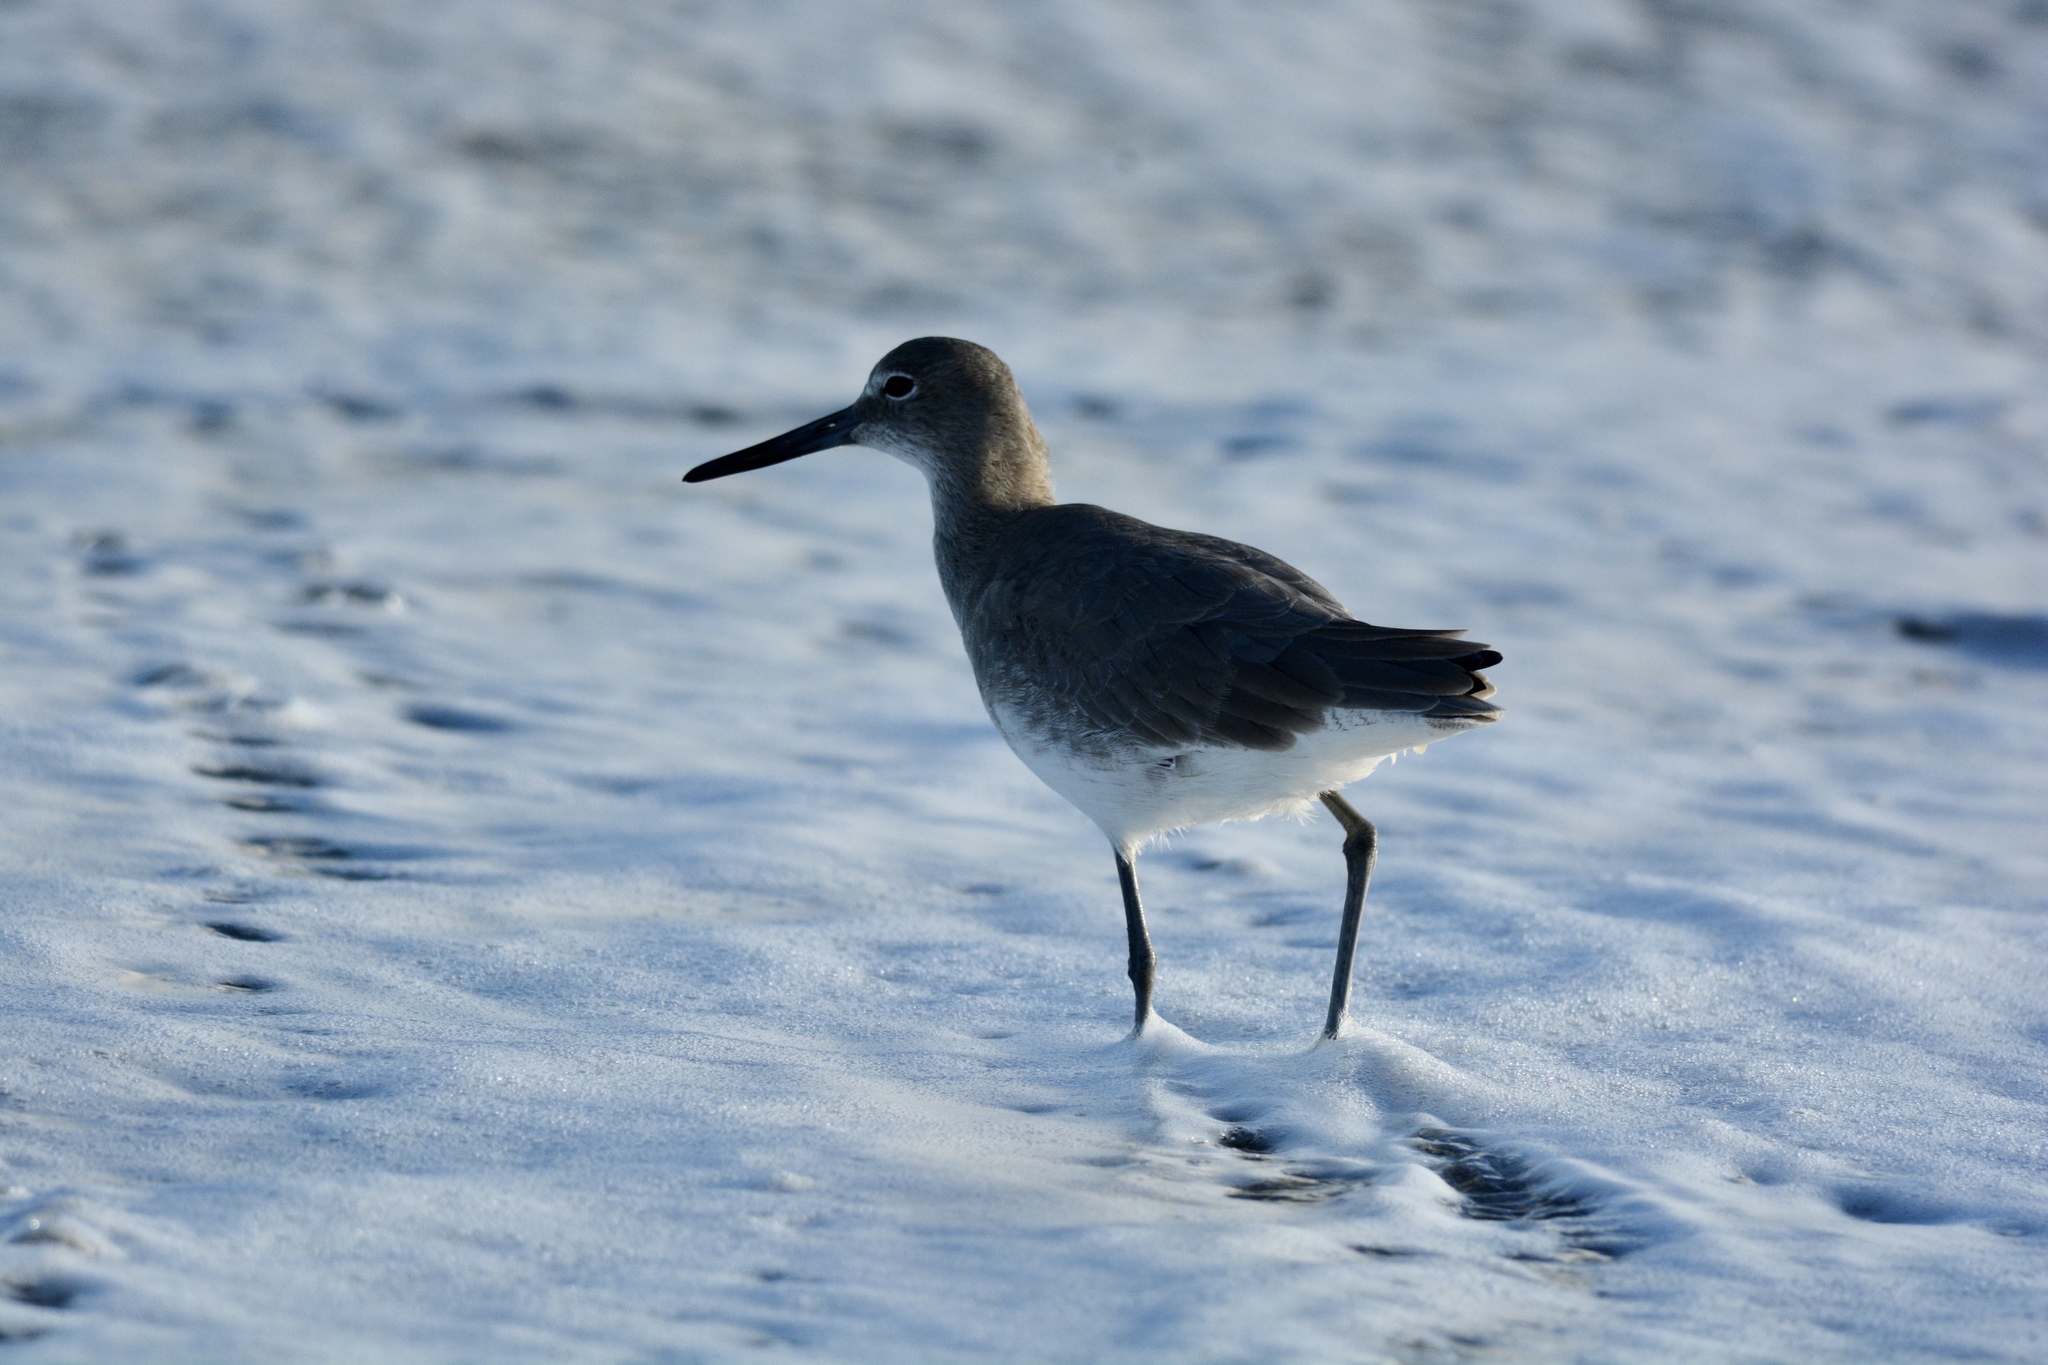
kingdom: Animalia
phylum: Chordata
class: Aves
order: Charadriiformes
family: Scolopacidae
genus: Tringa
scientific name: Tringa semipalmata
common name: Willet
